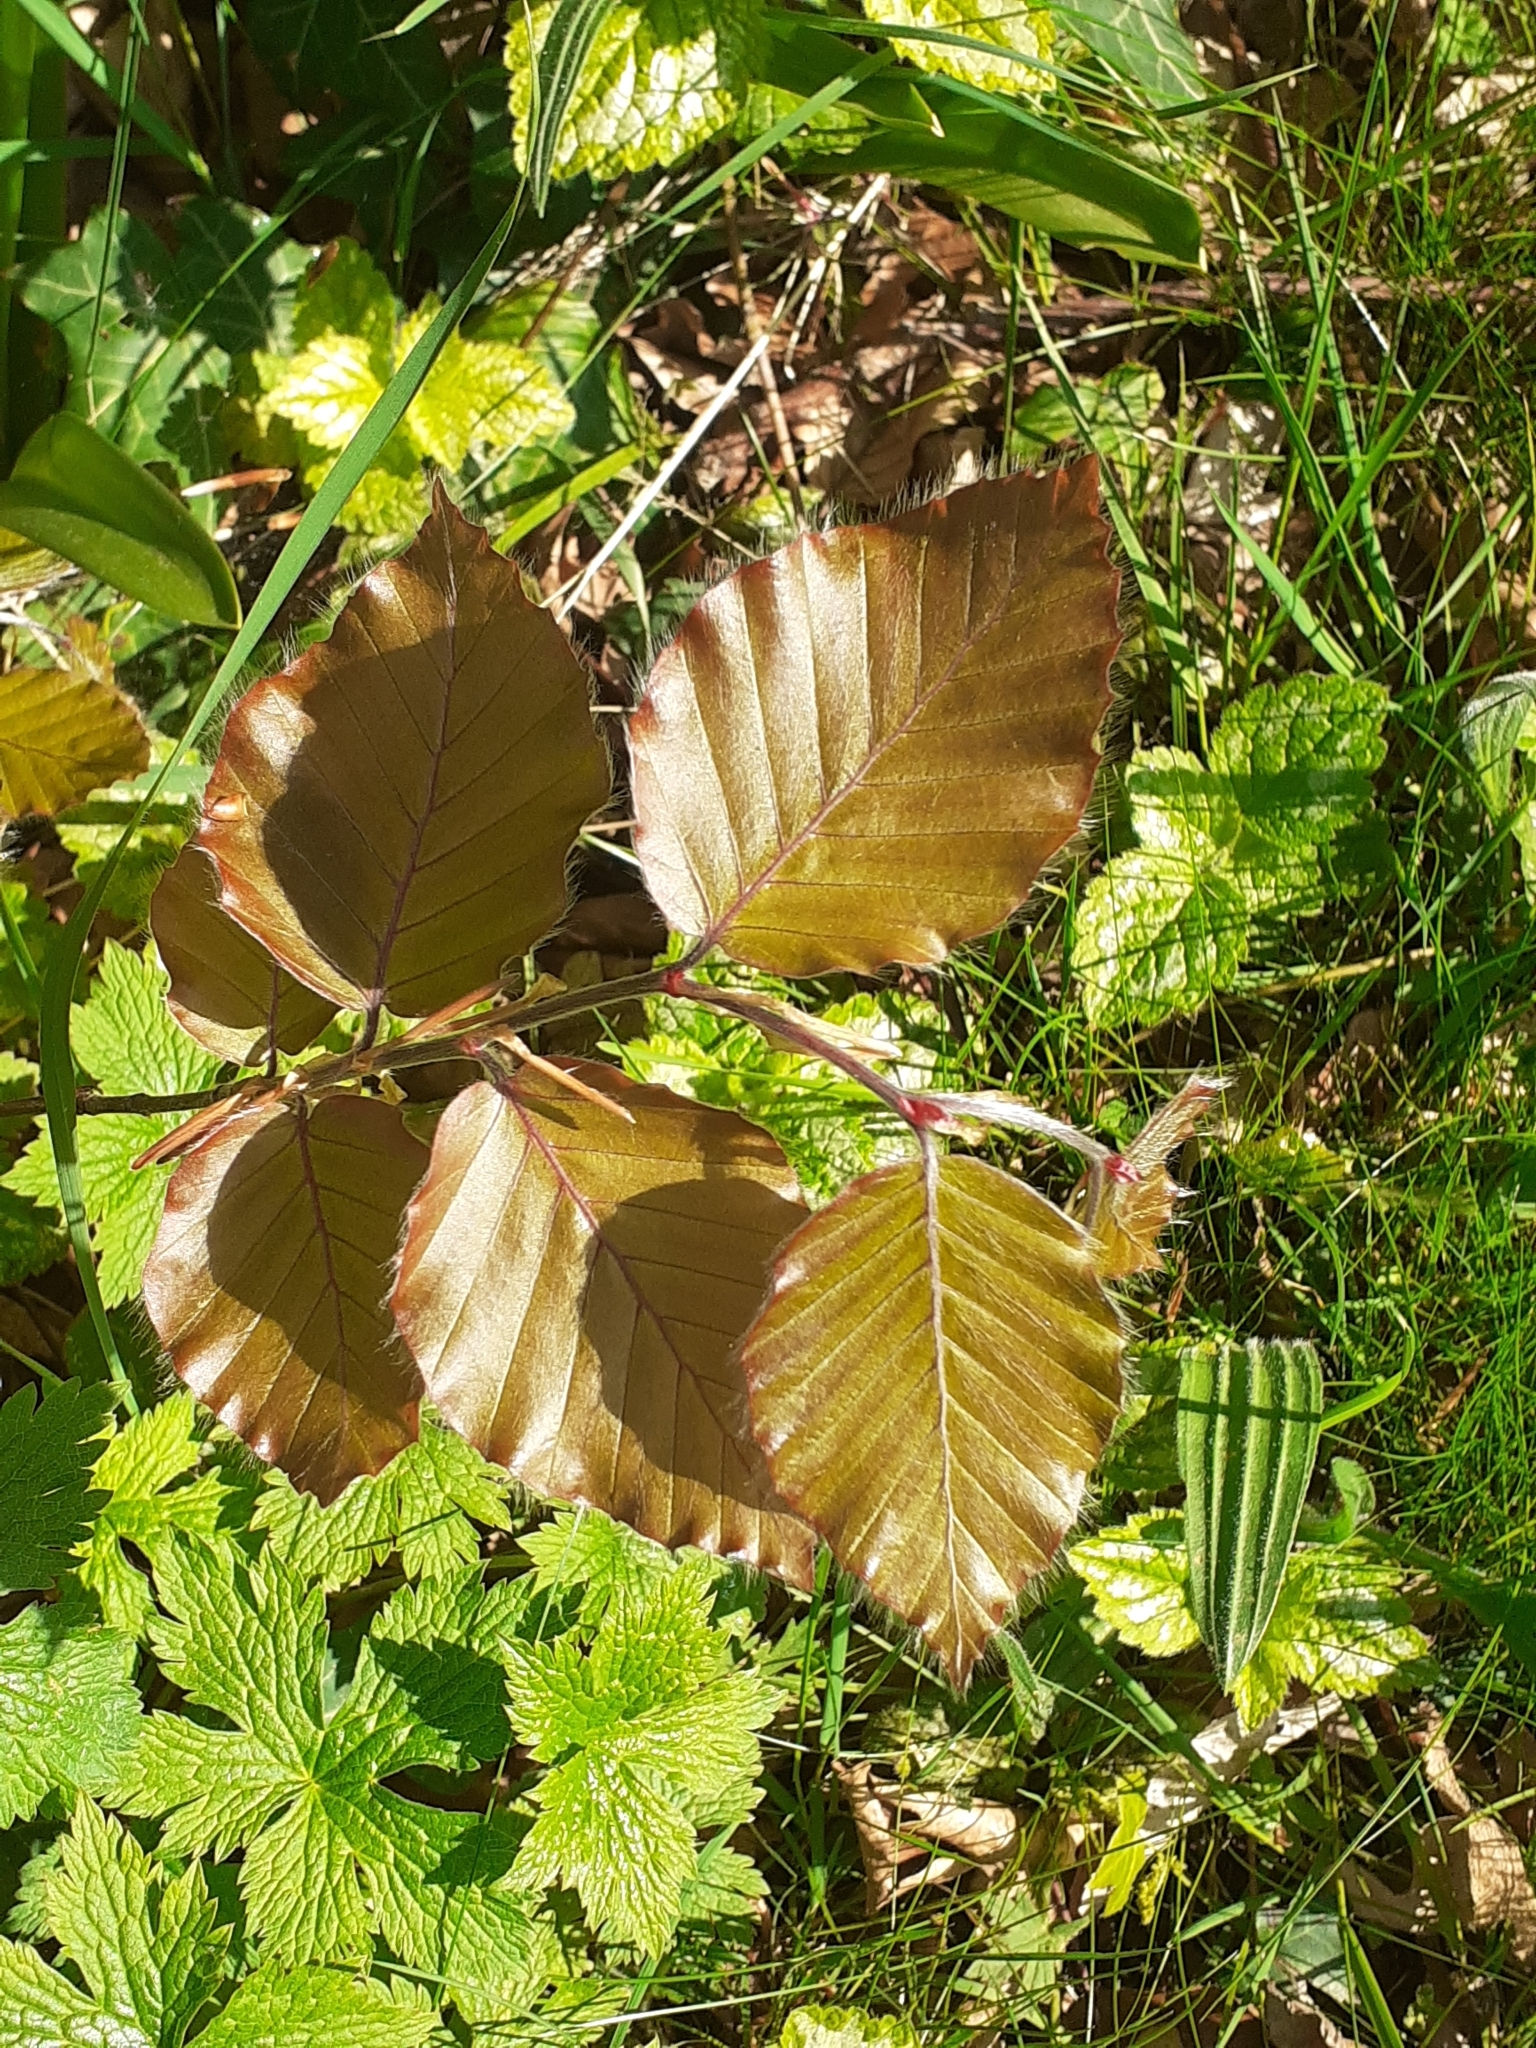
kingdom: Plantae
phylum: Tracheophyta
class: Magnoliopsida
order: Fagales
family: Fagaceae
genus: Fagus
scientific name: Fagus sylvatica
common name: Beech
